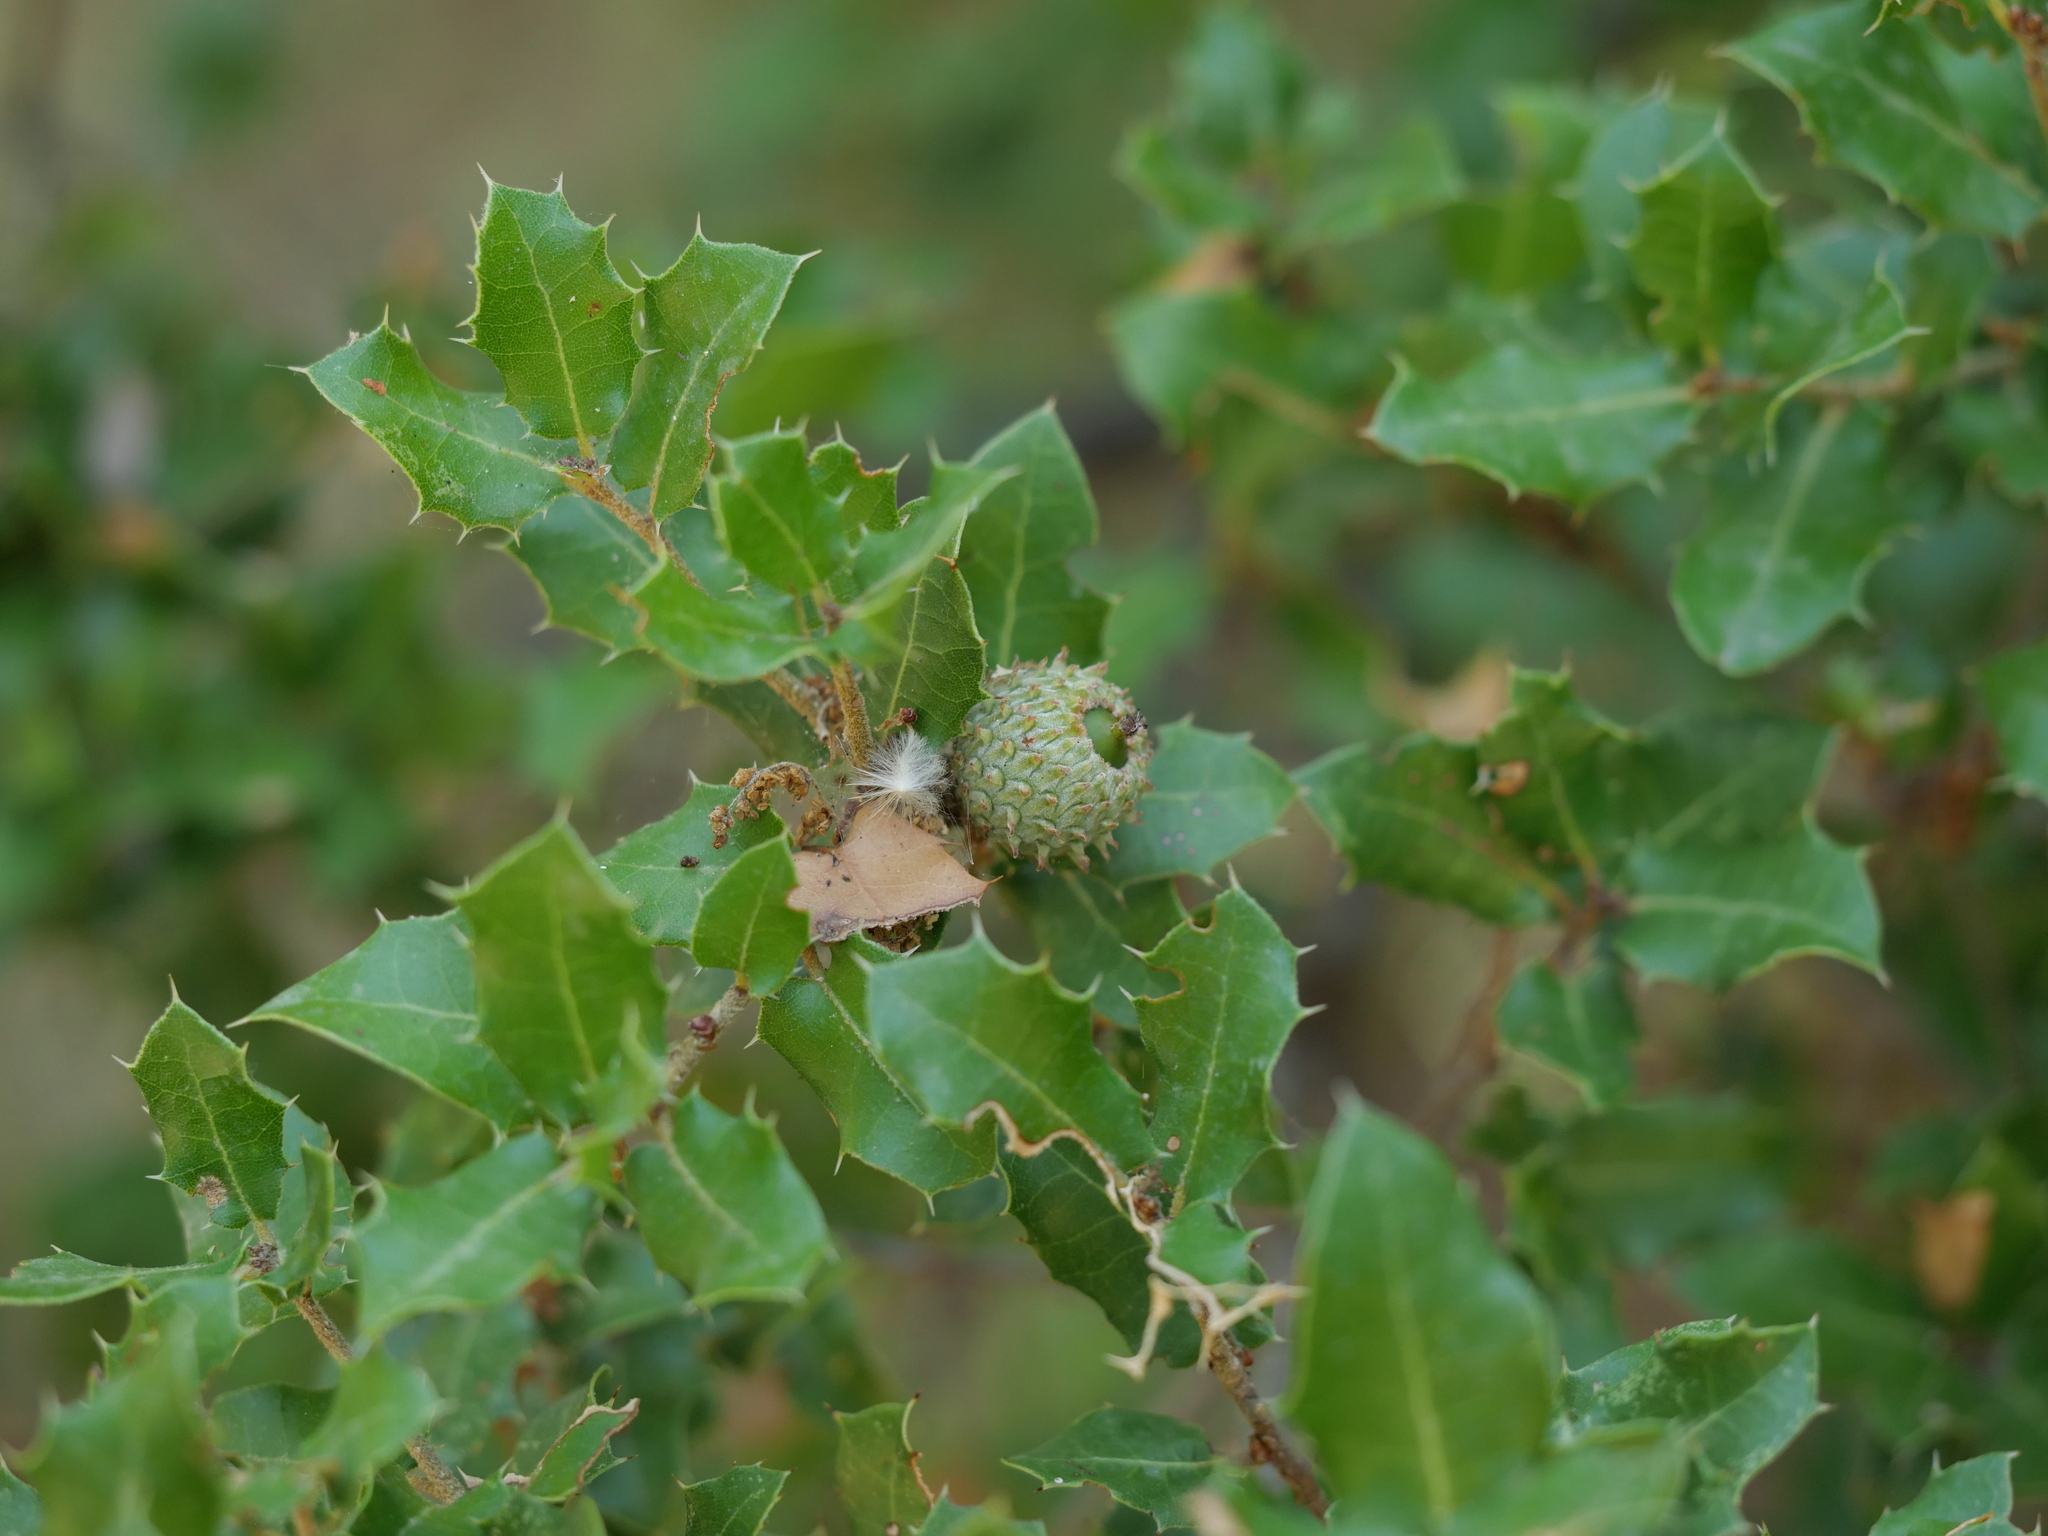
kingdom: Plantae
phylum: Tracheophyta
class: Magnoliopsida
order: Fagales
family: Fagaceae
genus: Quercus
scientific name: Quercus coccifera
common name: Kermes oak
